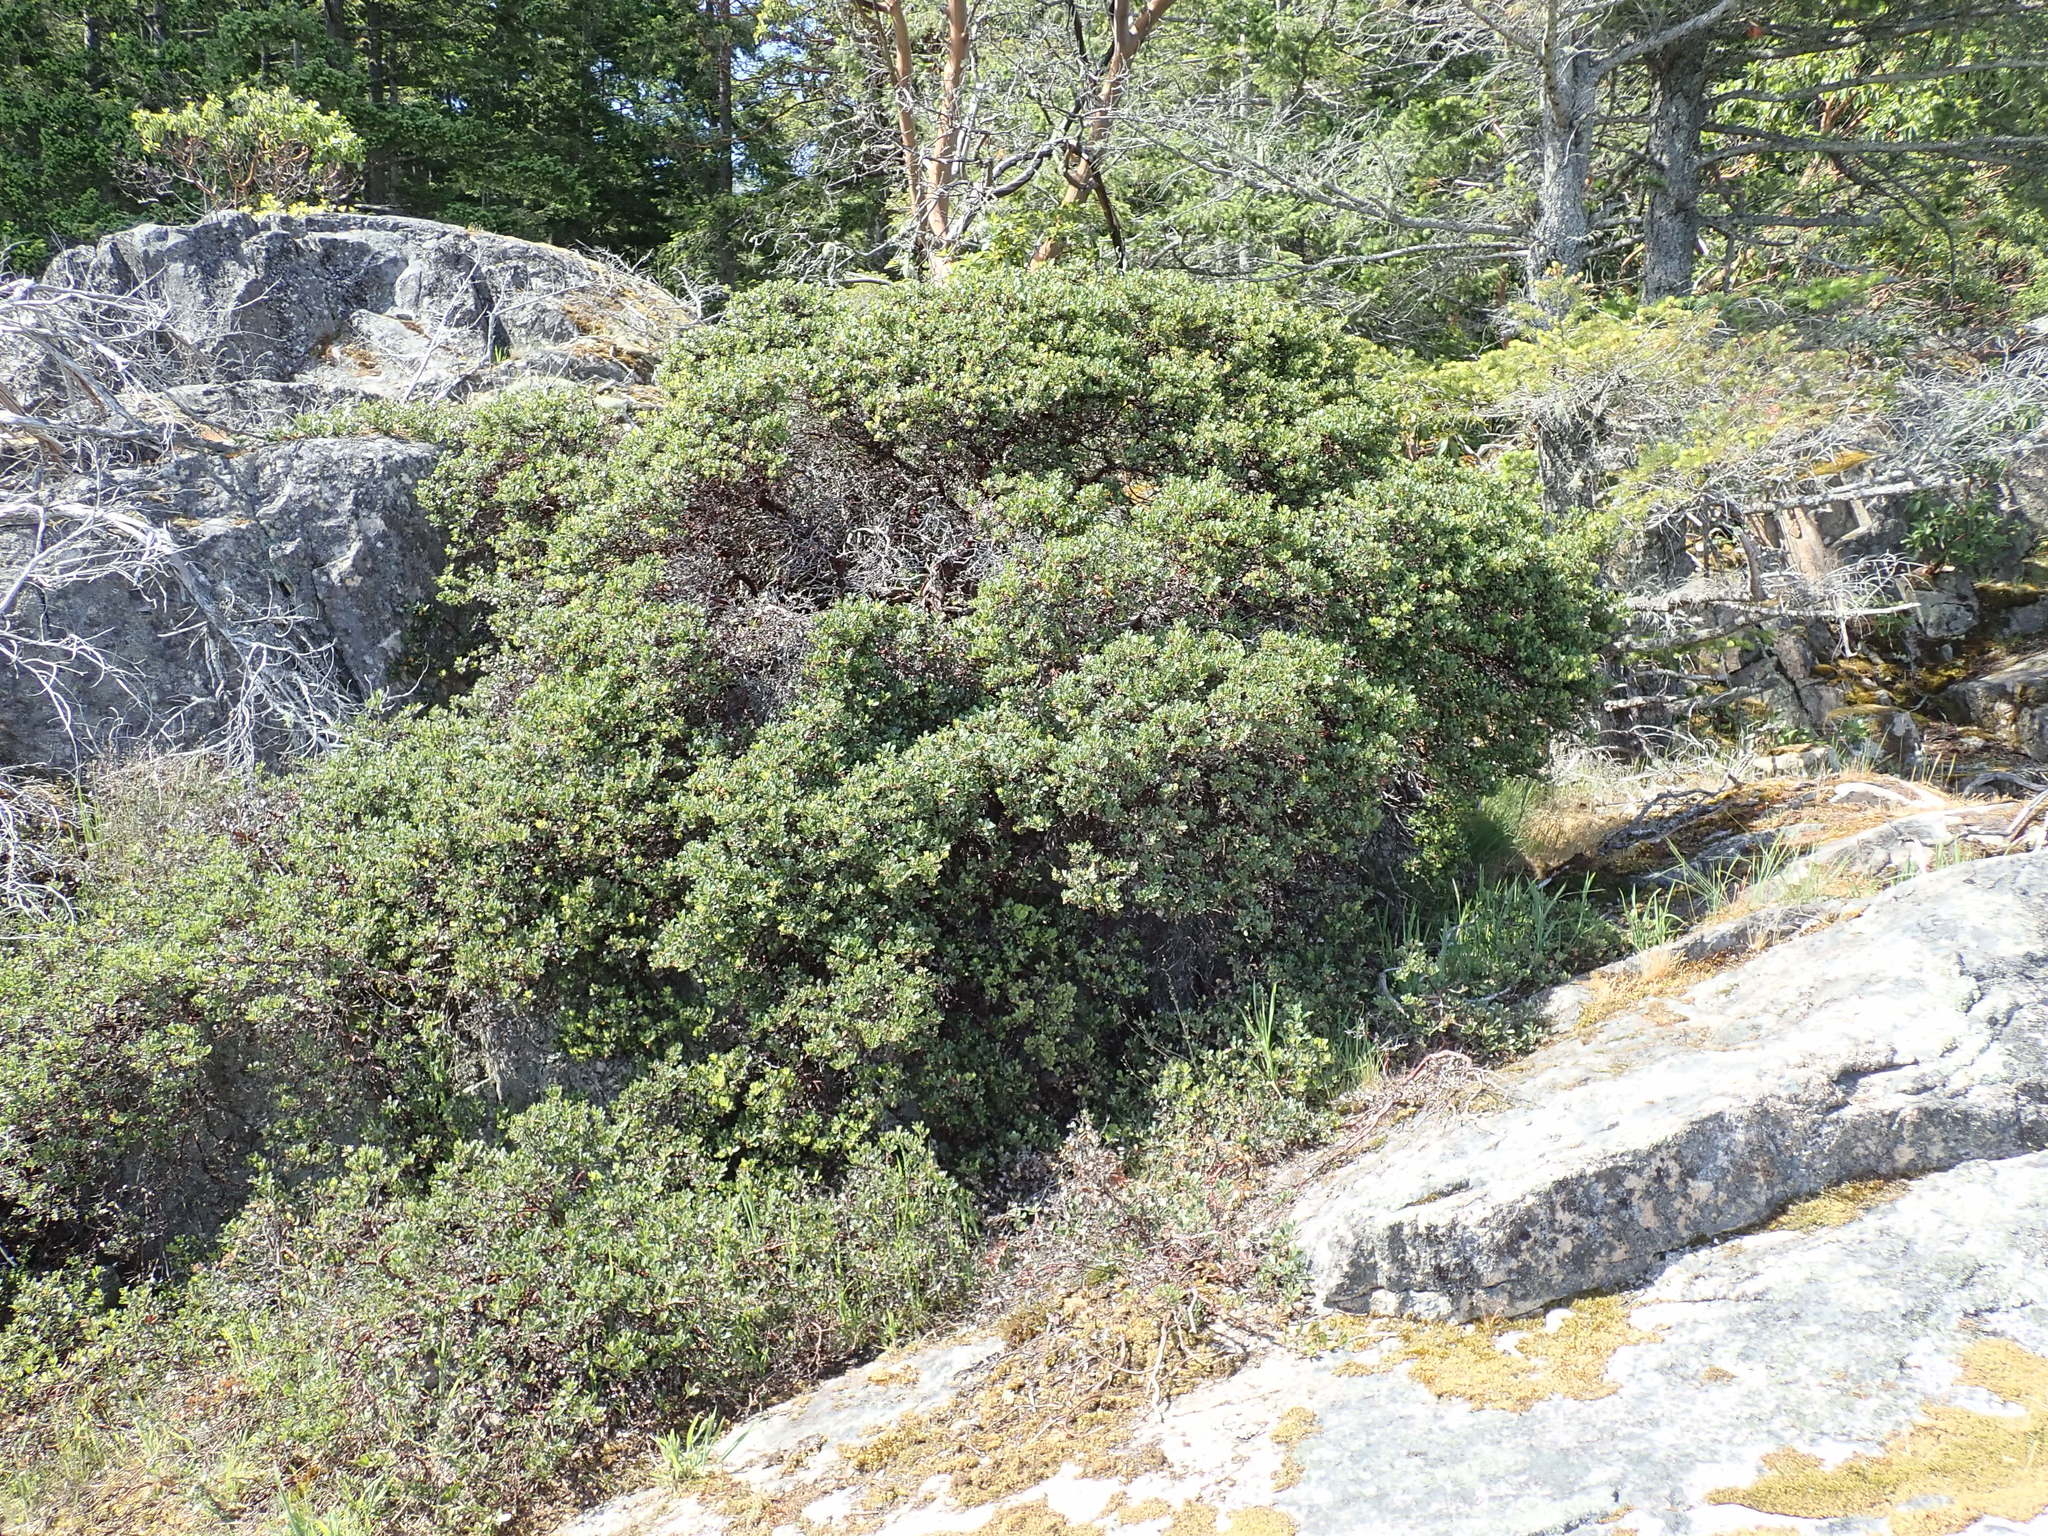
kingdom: Plantae
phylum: Tracheophyta
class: Magnoliopsida
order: Ericales
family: Ericaceae
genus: Arctostaphylos
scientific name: Arctostaphylos columbiana
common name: Bristly bearberry
